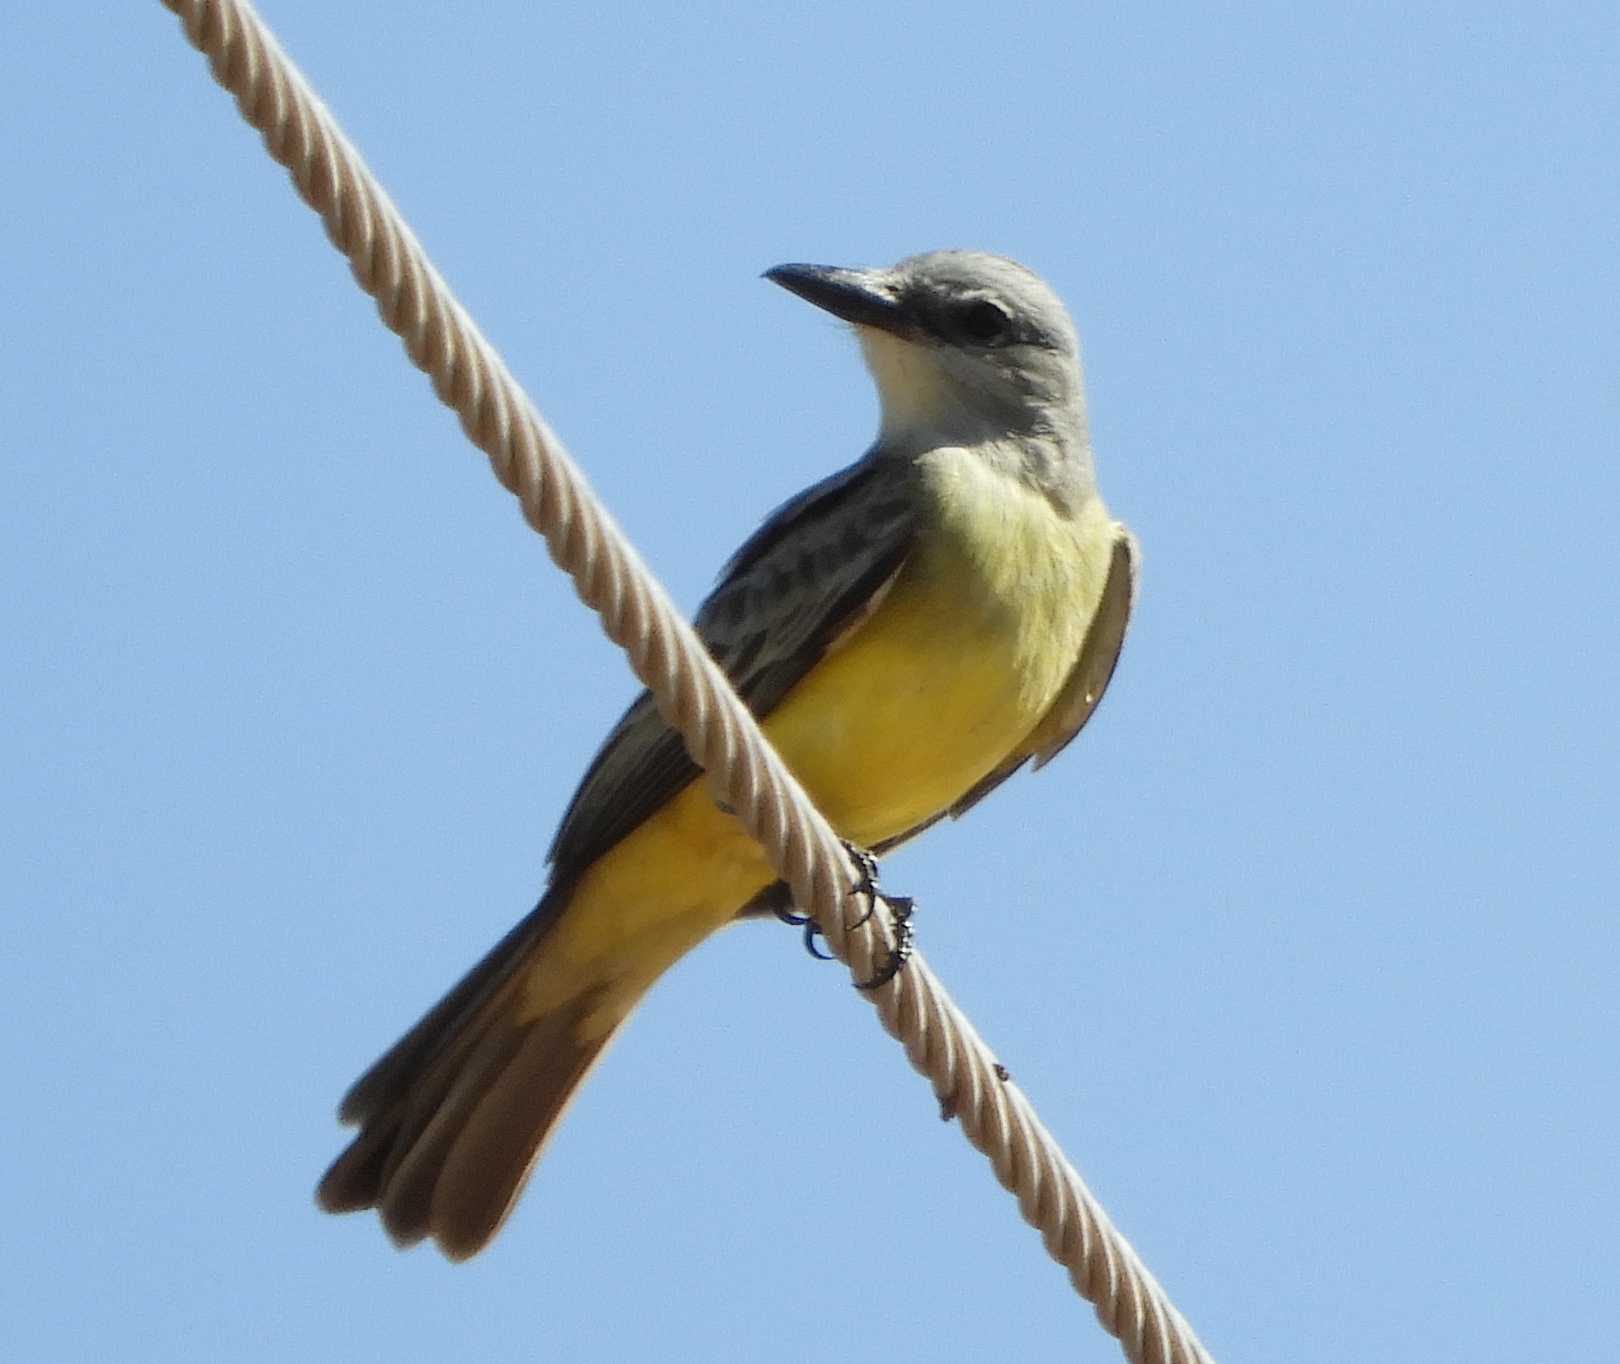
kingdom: Animalia
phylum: Chordata
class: Aves
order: Passeriformes
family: Tyrannidae
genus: Tyrannus
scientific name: Tyrannus melancholicus
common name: Tropical kingbird
